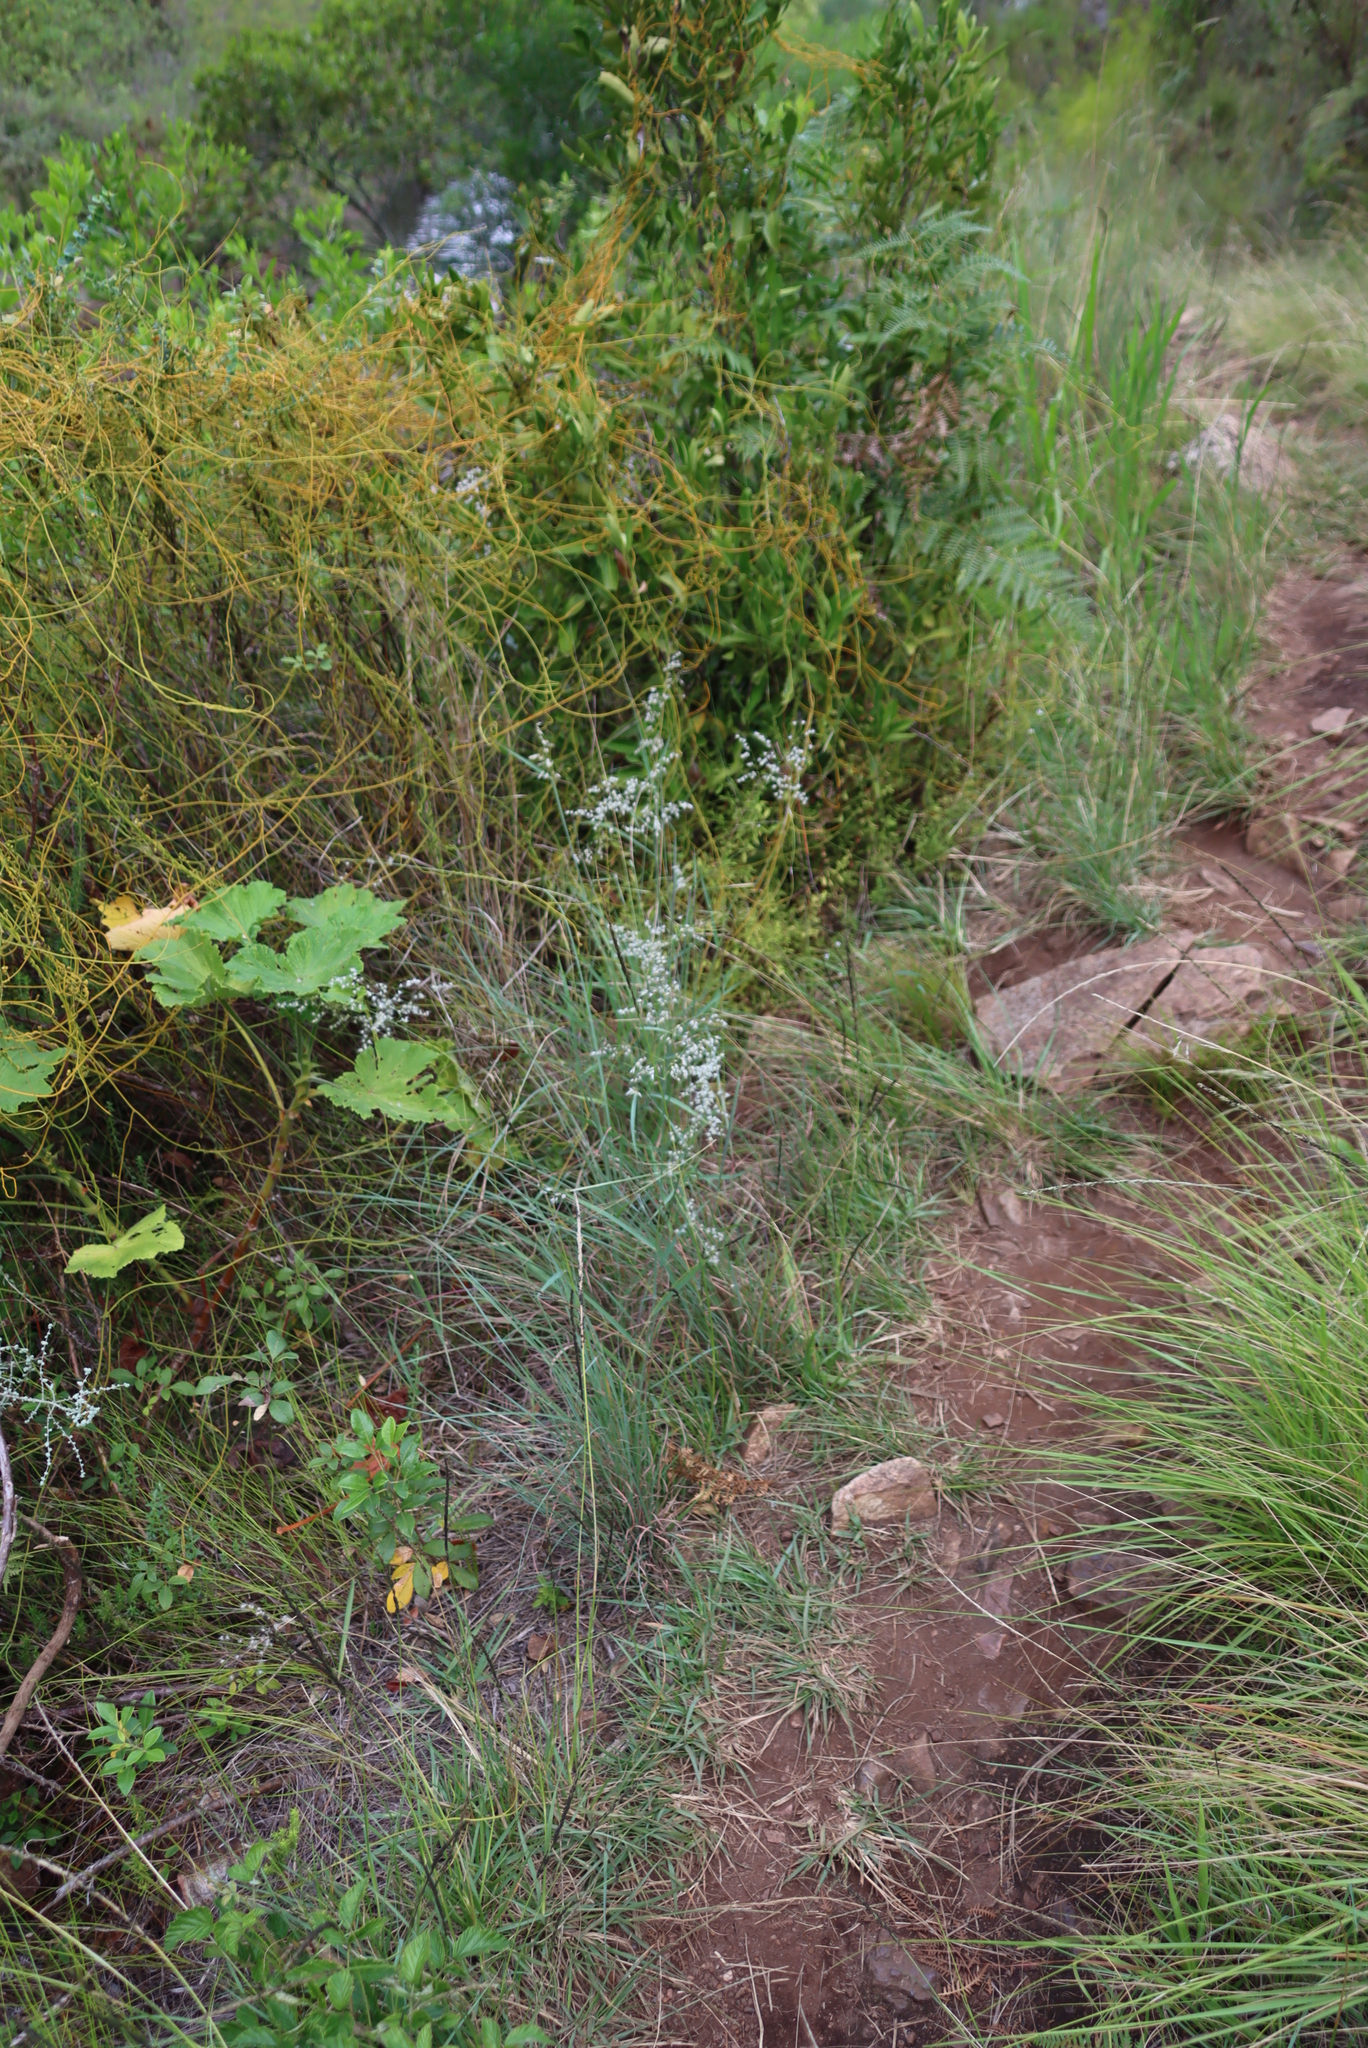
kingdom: Plantae
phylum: Tracheophyta
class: Liliopsida
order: Poales
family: Poaceae
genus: Melinis
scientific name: Melinis repens
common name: Rose natal grass
